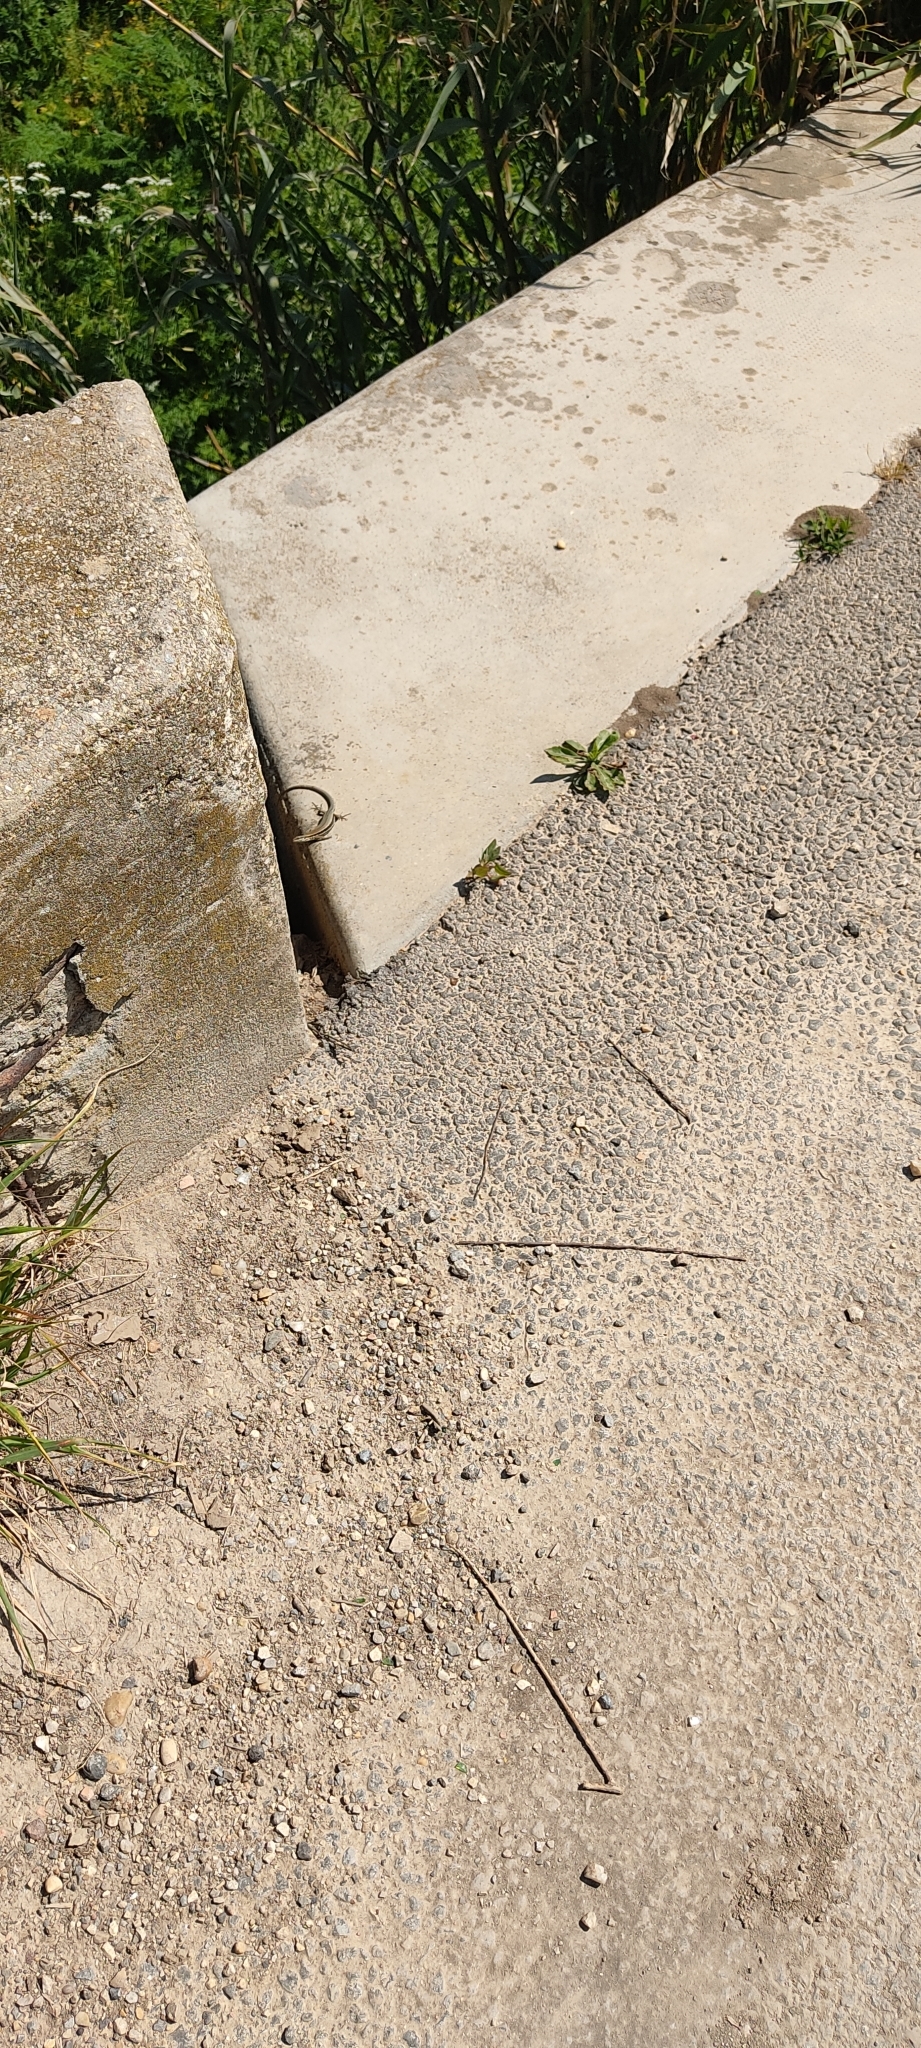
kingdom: Animalia
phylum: Chordata
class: Squamata
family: Lacertidae
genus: Podarcis
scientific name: Podarcis muralis
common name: Common wall lizard
